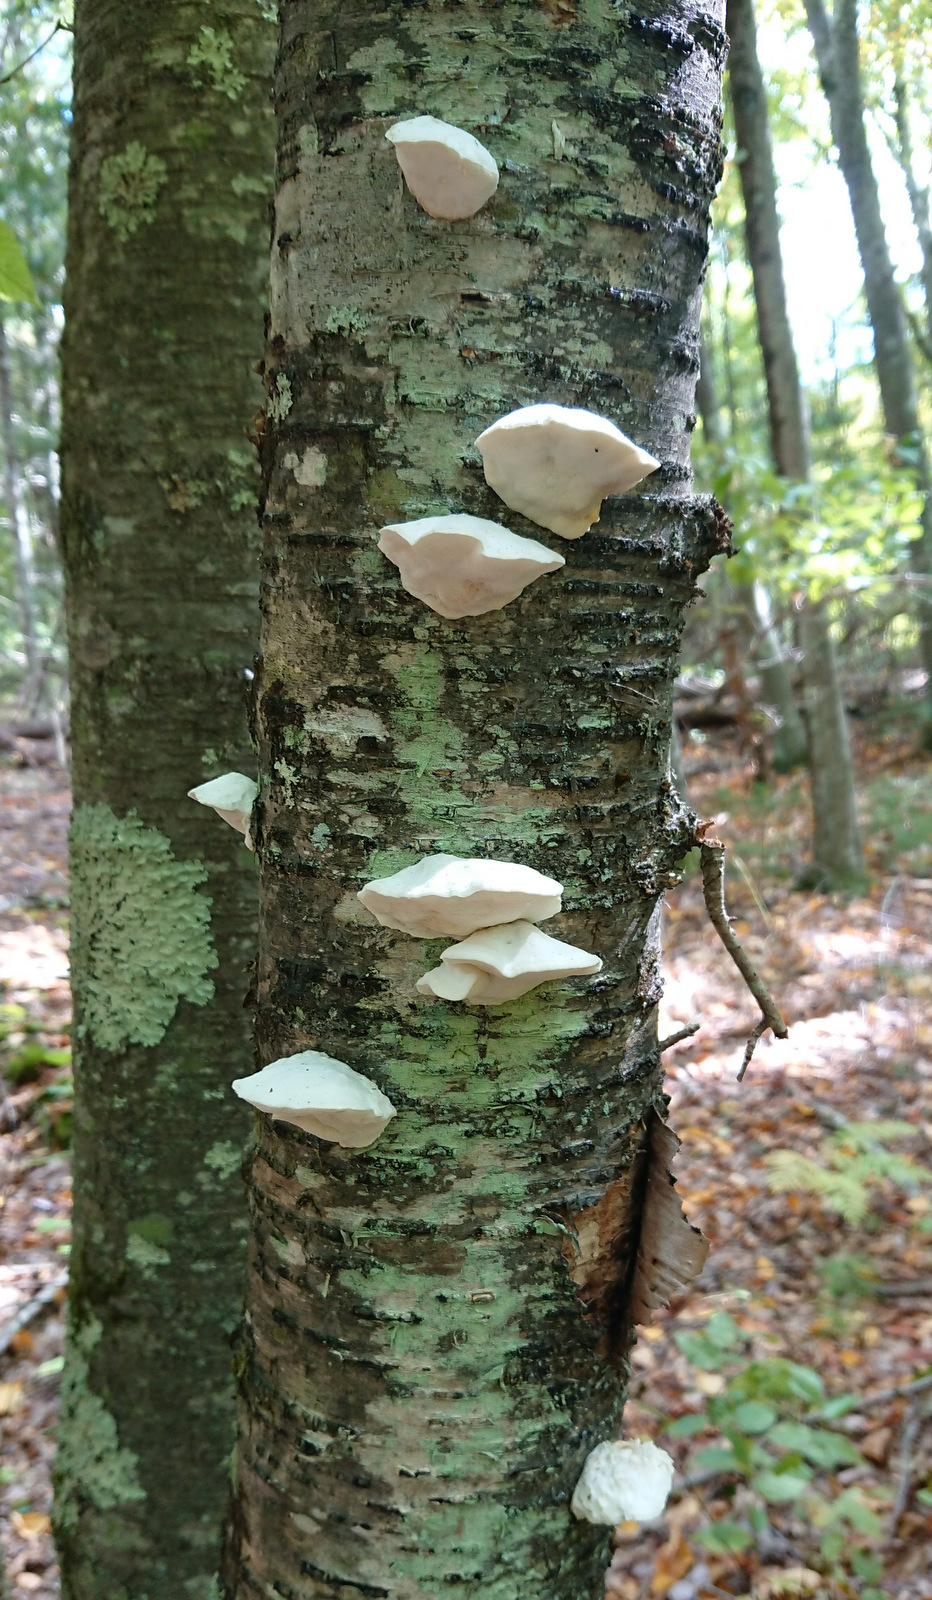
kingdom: Fungi
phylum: Basidiomycota
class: Agaricomycetes
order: Polyporales
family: Incrustoporiaceae
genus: Tyromyces
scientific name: Tyromyces chioneus
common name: White cheese polypore
